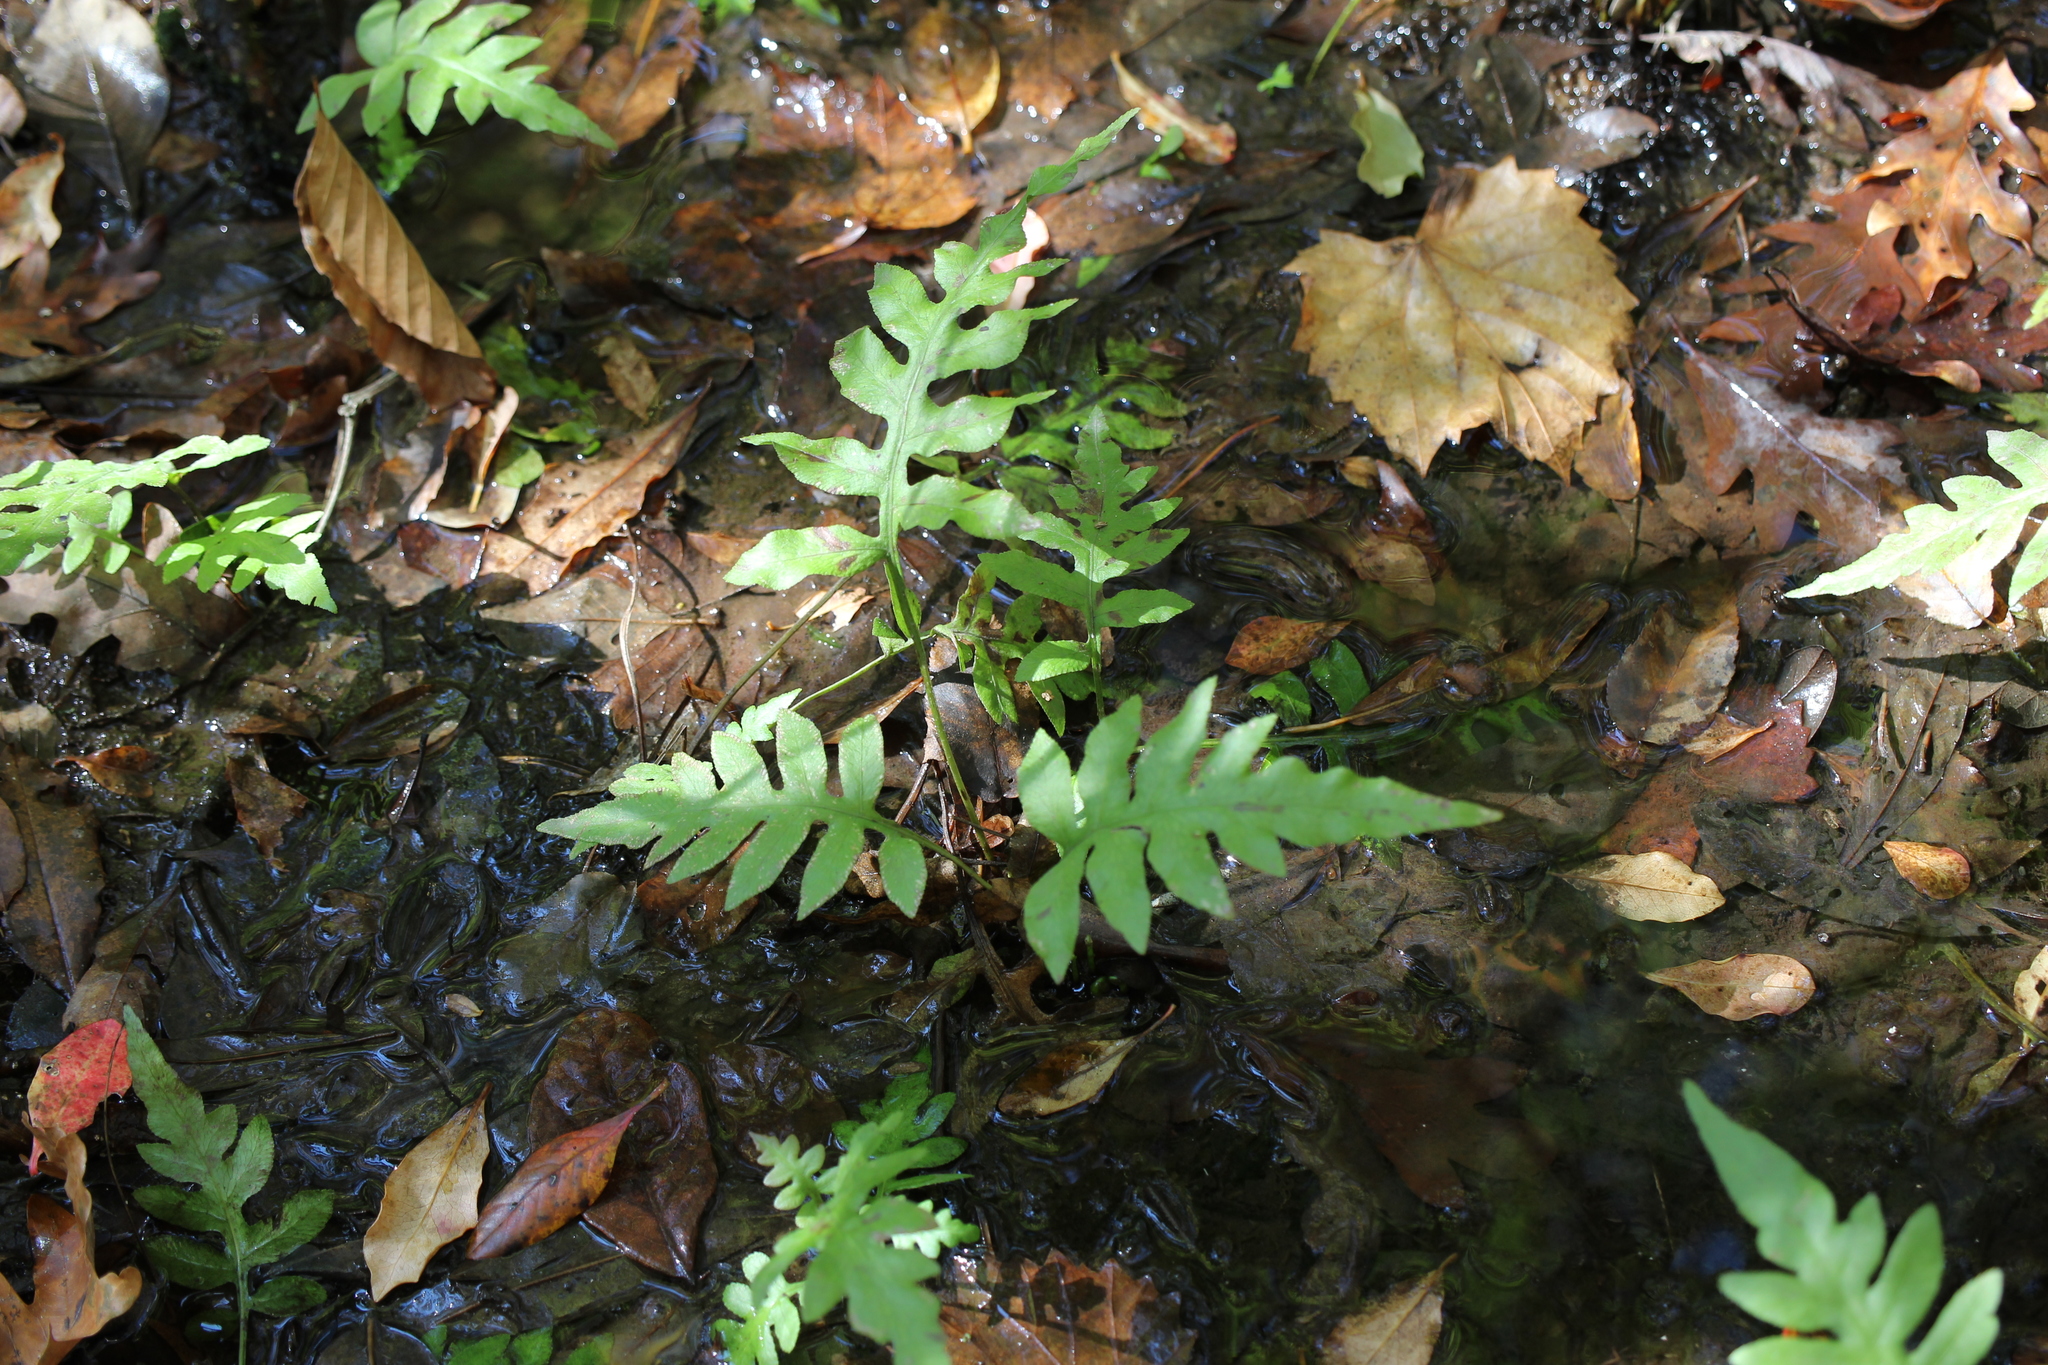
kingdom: Plantae
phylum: Tracheophyta
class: Polypodiopsida
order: Polypodiales
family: Blechnaceae
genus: Lorinseria
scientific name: Lorinseria areolata
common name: Dwarf chain fern
